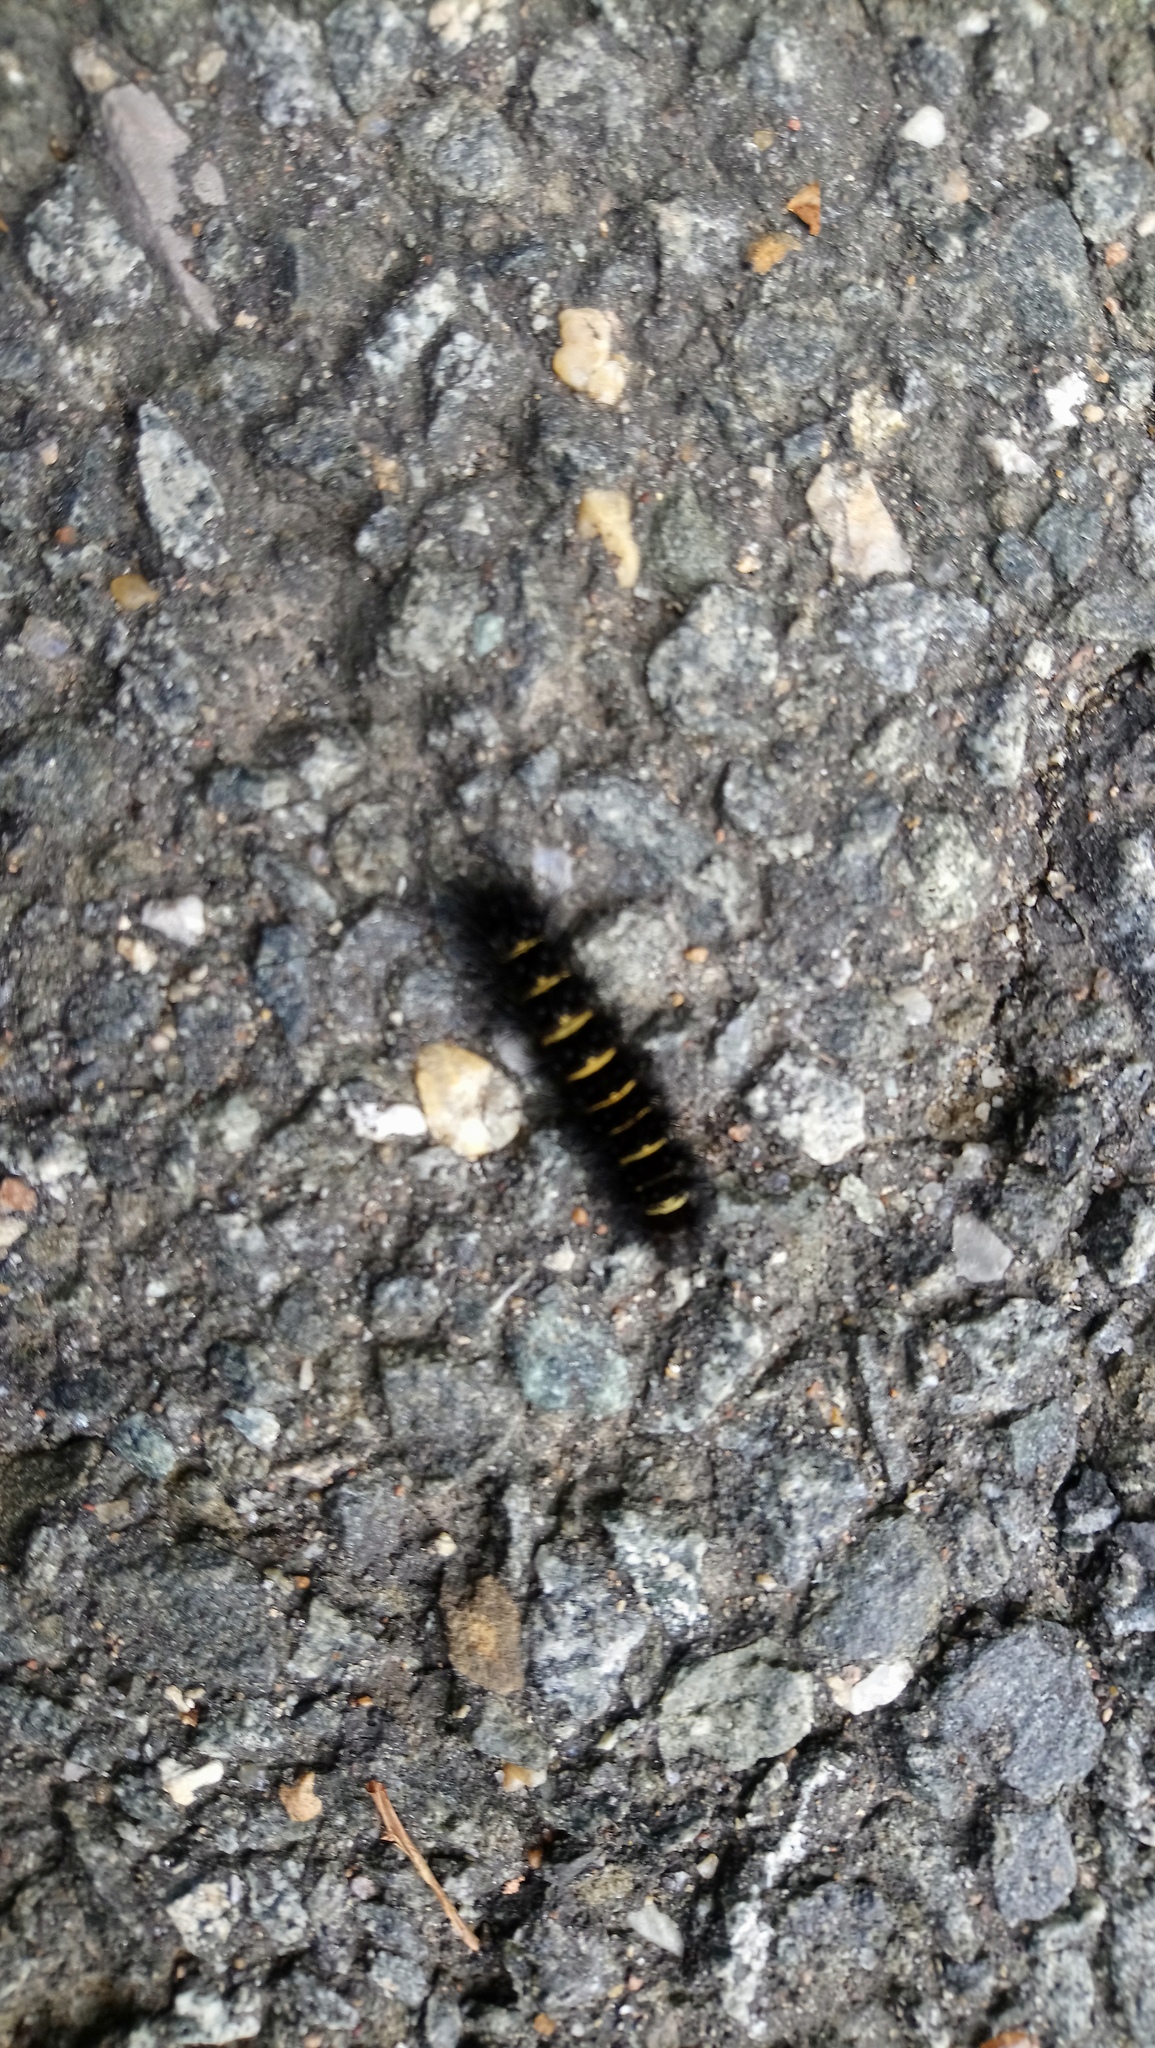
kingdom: Animalia
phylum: Arthropoda
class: Insecta
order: Lepidoptera
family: Erebidae
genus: Spilosoma
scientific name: Spilosoma congrua
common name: Agreeable tiger moth
